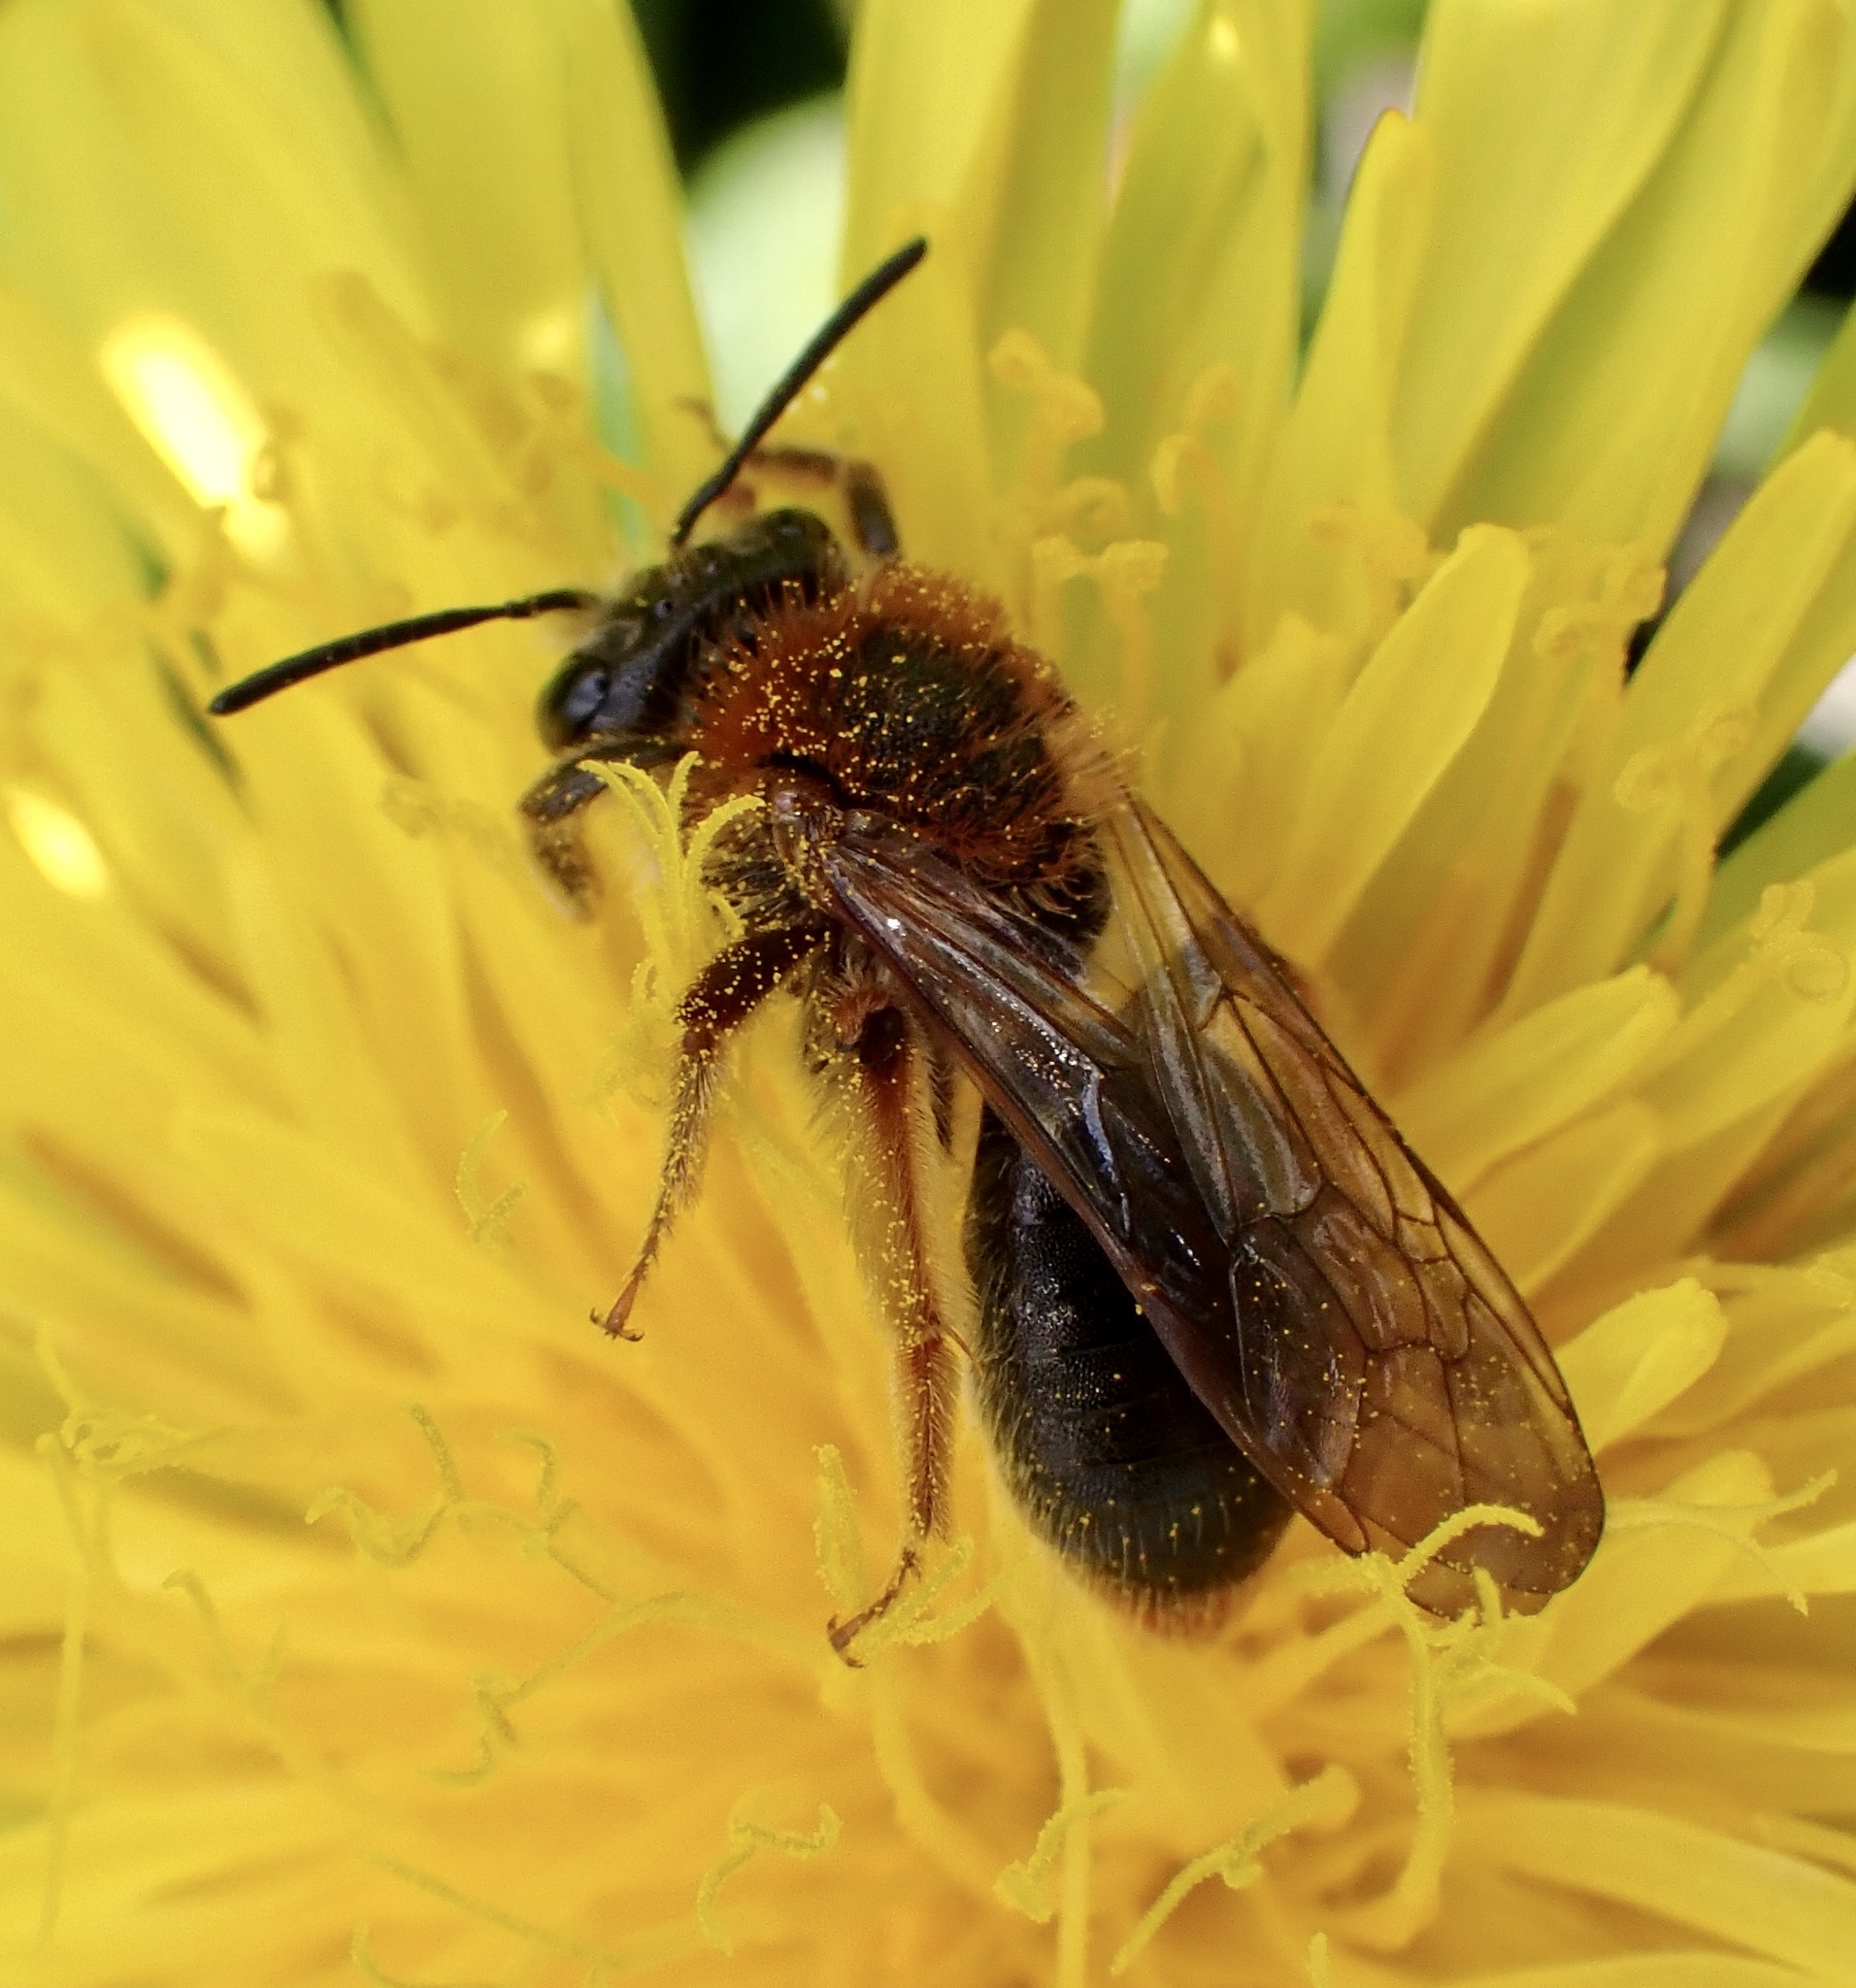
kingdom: Animalia
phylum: Arthropoda
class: Insecta
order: Hymenoptera
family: Andrenidae
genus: Andrena
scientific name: Andrena haemorrhoa
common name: Early mining bee
